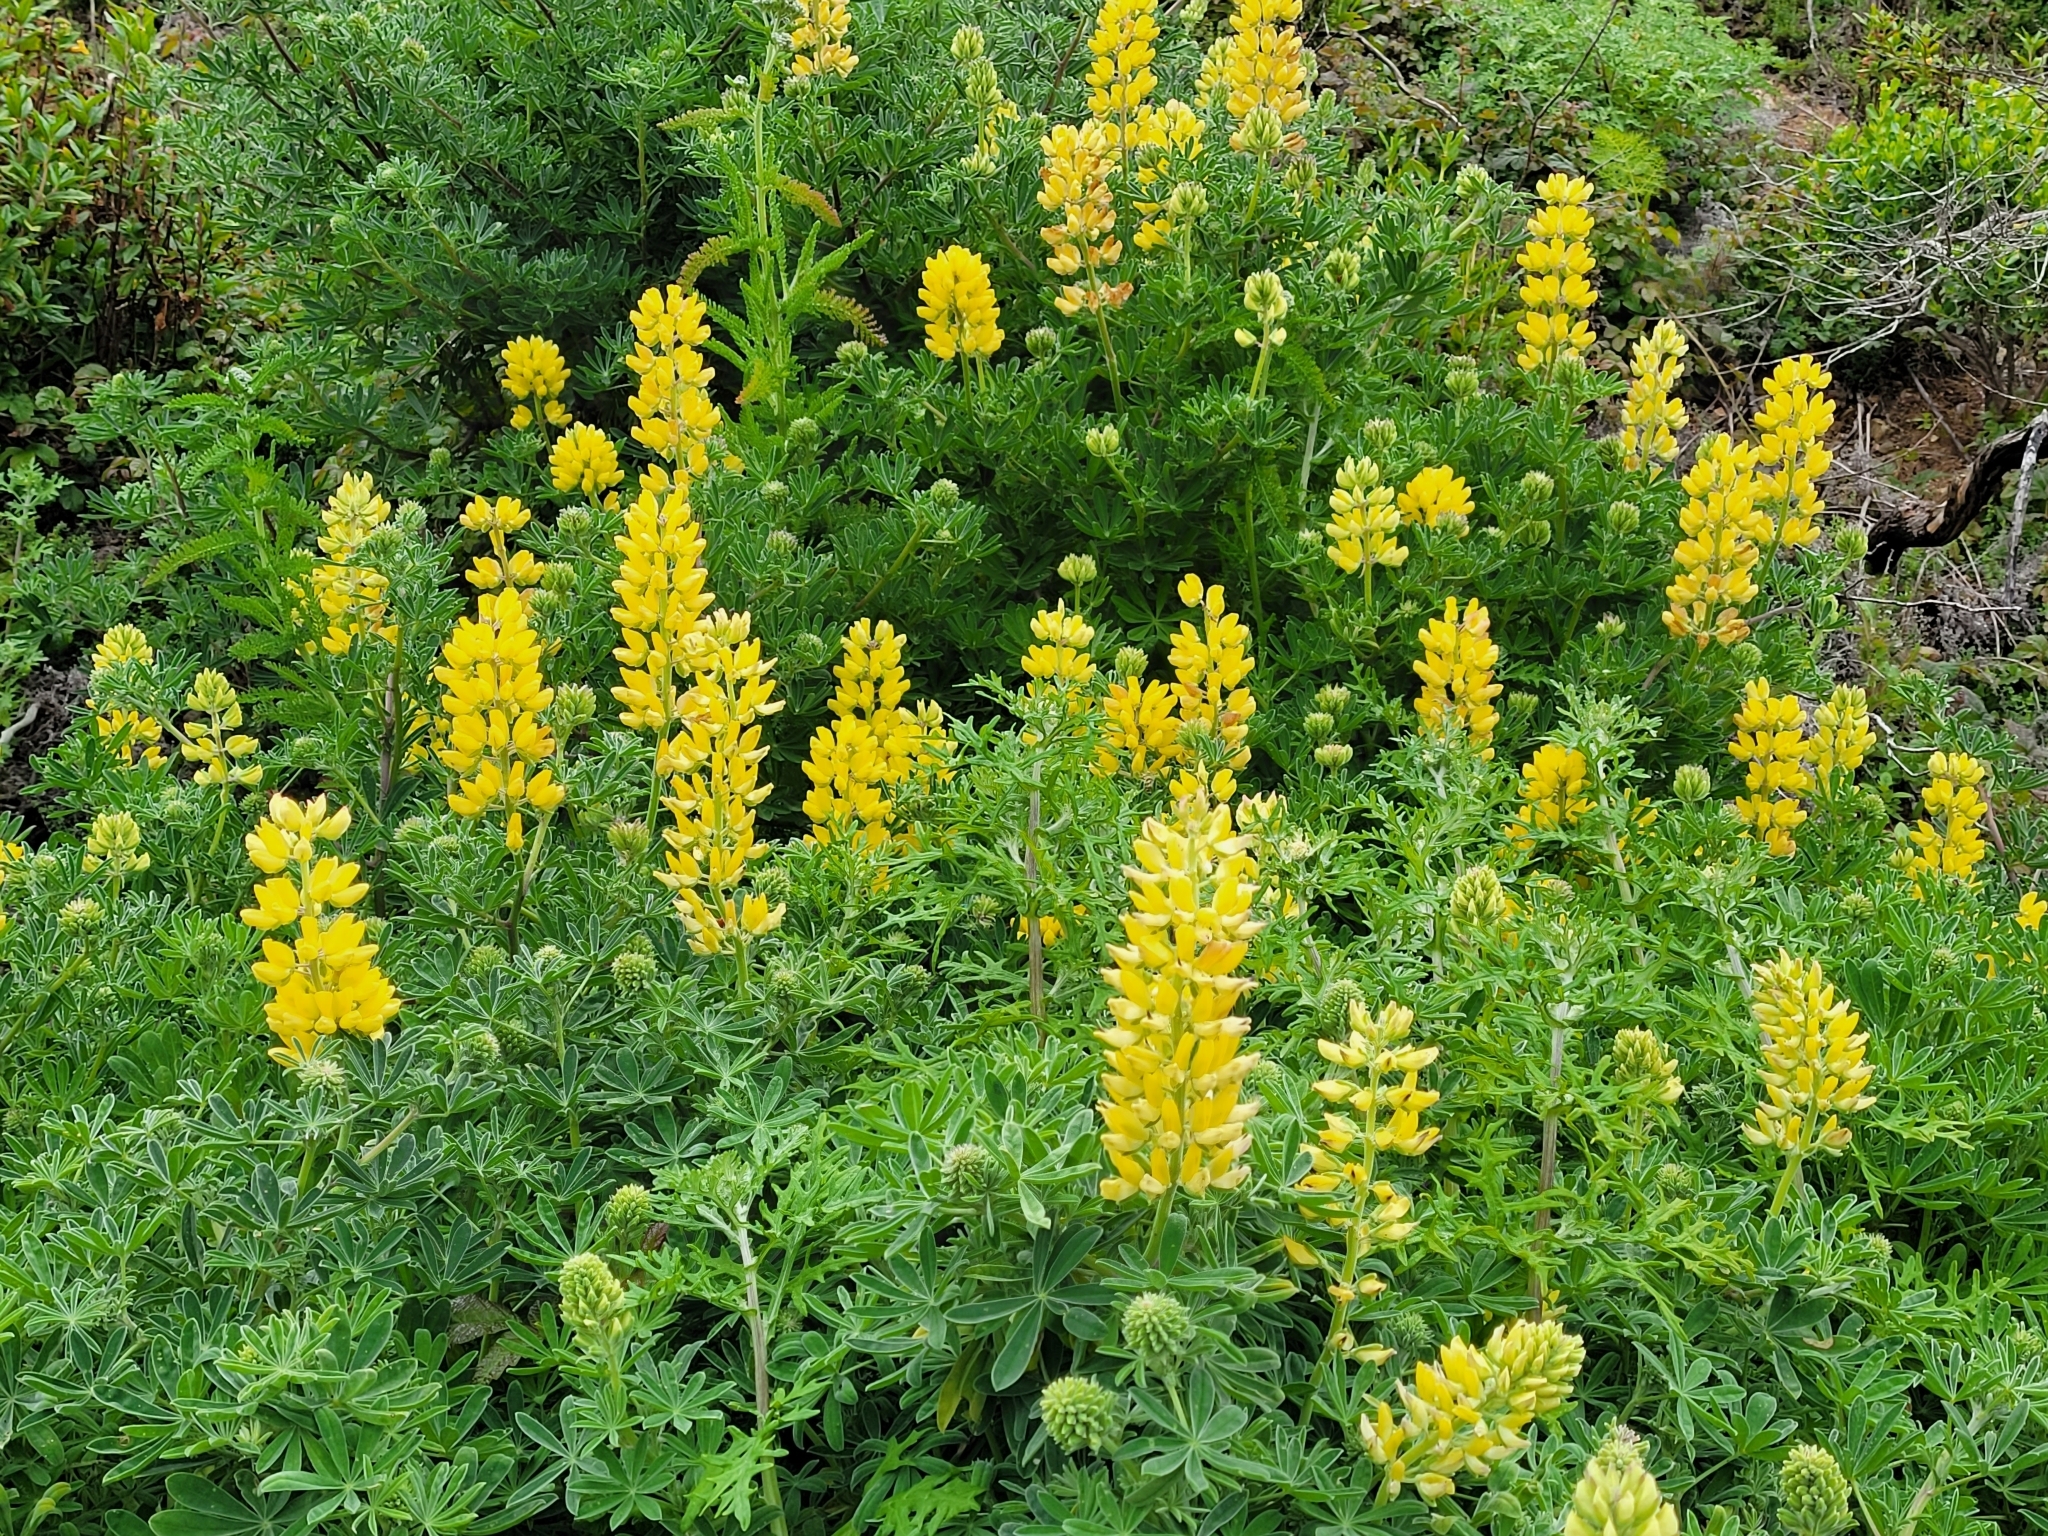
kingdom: Plantae
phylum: Tracheophyta
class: Magnoliopsida
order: Fabales
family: Fabaceae
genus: Lupinus
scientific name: Lupinus arboreus
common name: Yellow bush lupine
